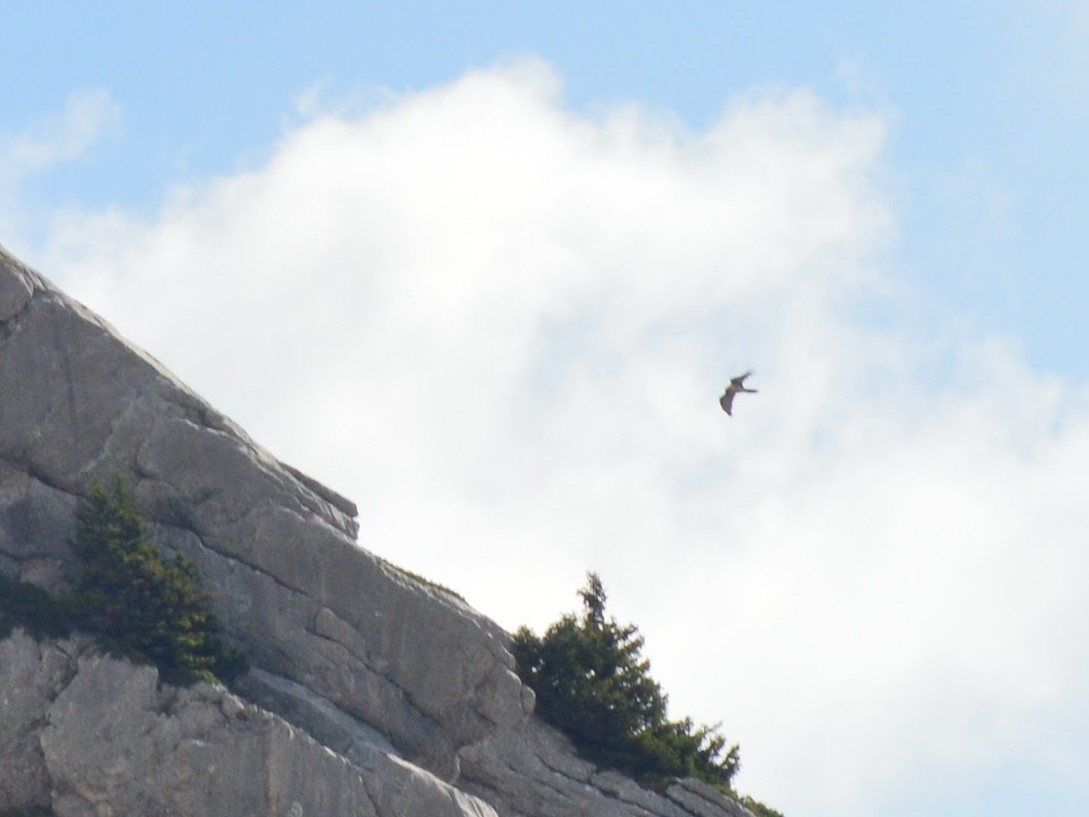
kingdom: Animalia
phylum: Chordata
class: Aves
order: Accipitriformes
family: Accipitridae
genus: Gypaetus
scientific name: Gypaetus barbatus
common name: Bearded vulture
